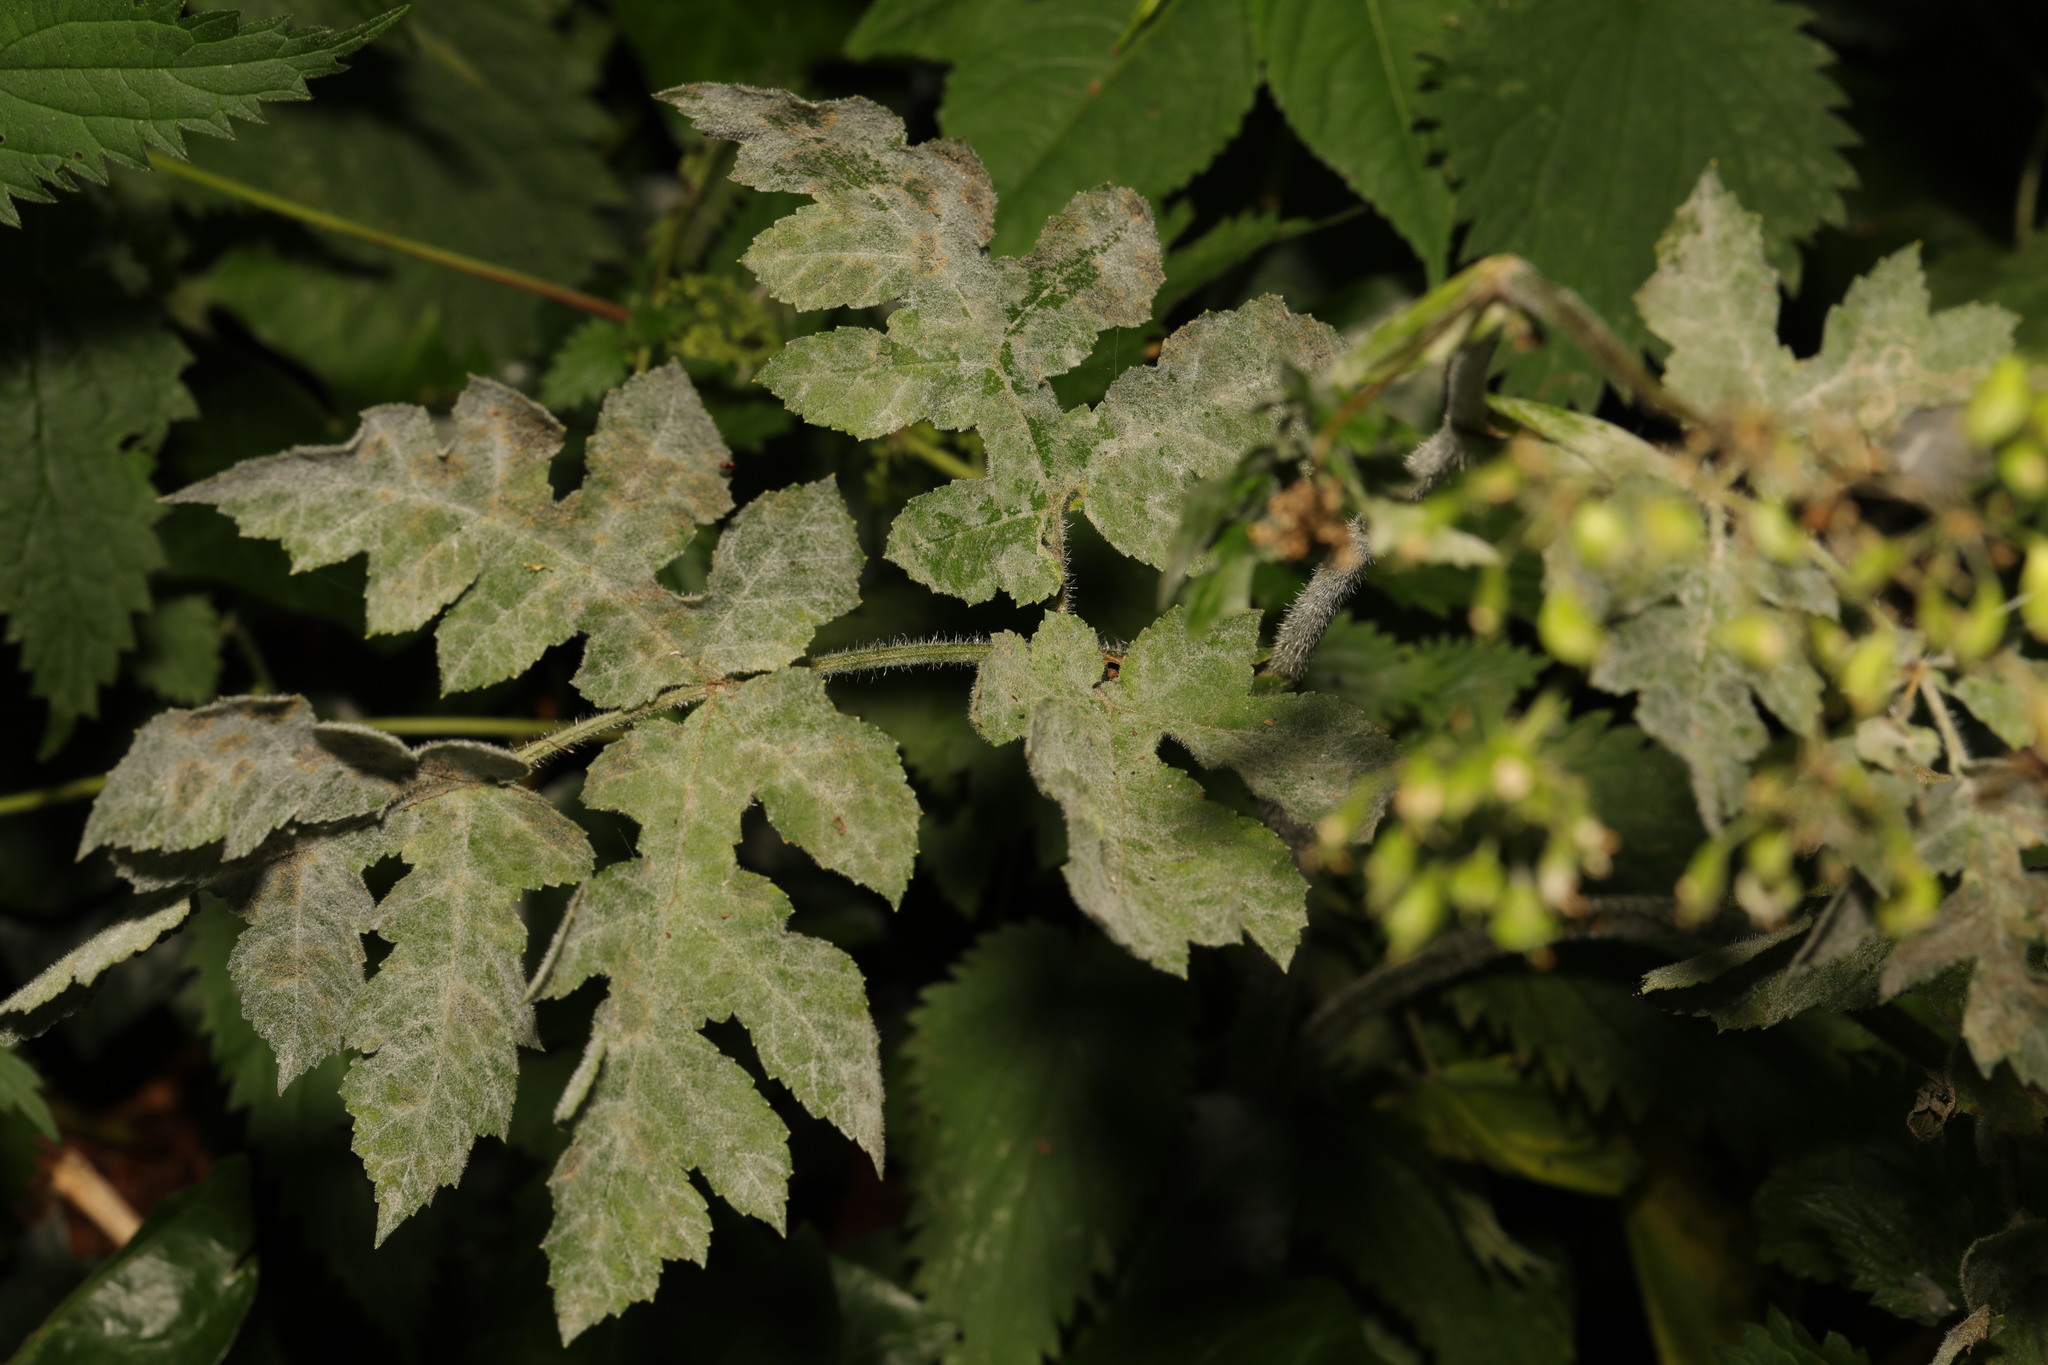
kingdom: Fungi
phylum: Ascomycota
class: Leotiomycetes
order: Helotiales
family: Erysiphaceae
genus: Erysiphe
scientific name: Erysiphe heraclei
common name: Umbellifer mildew
